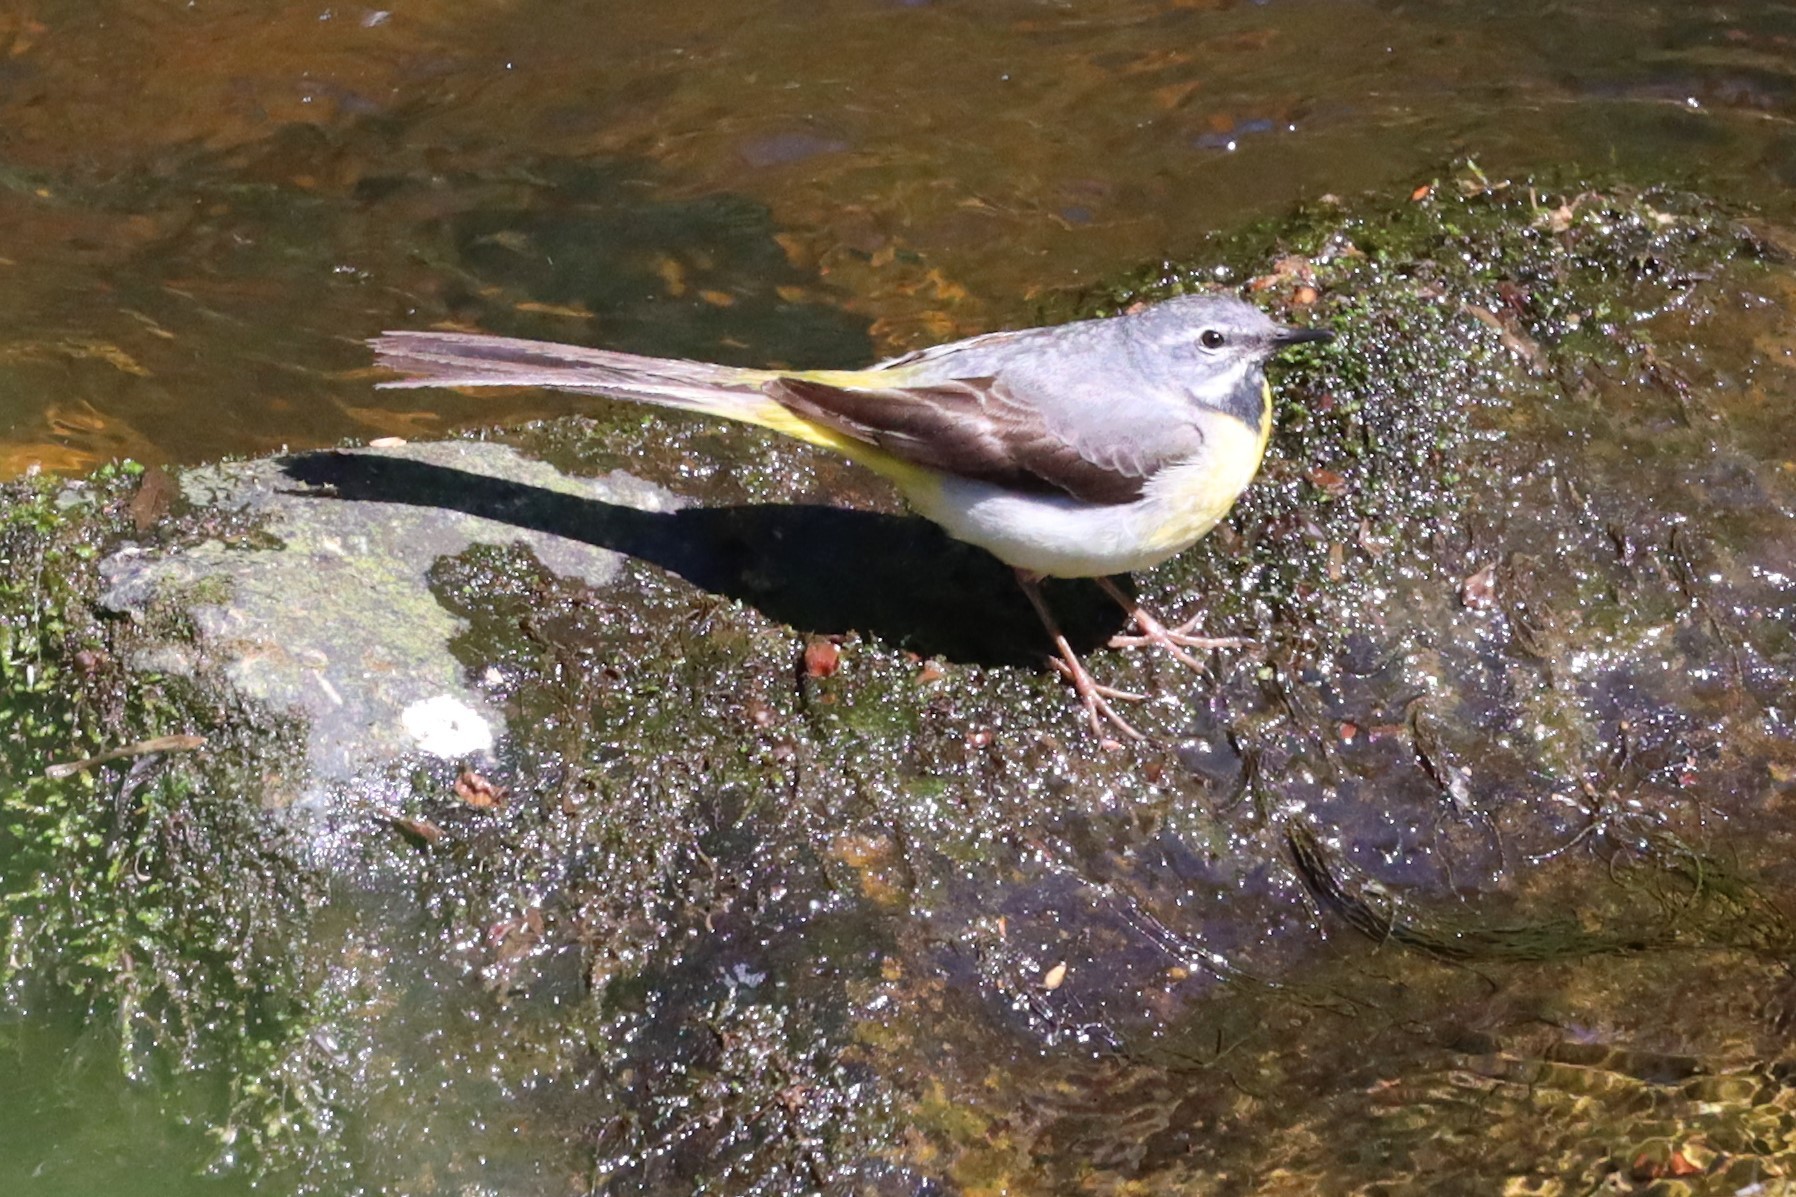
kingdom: Animalia
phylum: Chordata
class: Aves
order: Passeriformes
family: Motacillidae
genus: Motacilla
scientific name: Motacilla cinerea
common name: Grey wagtail
